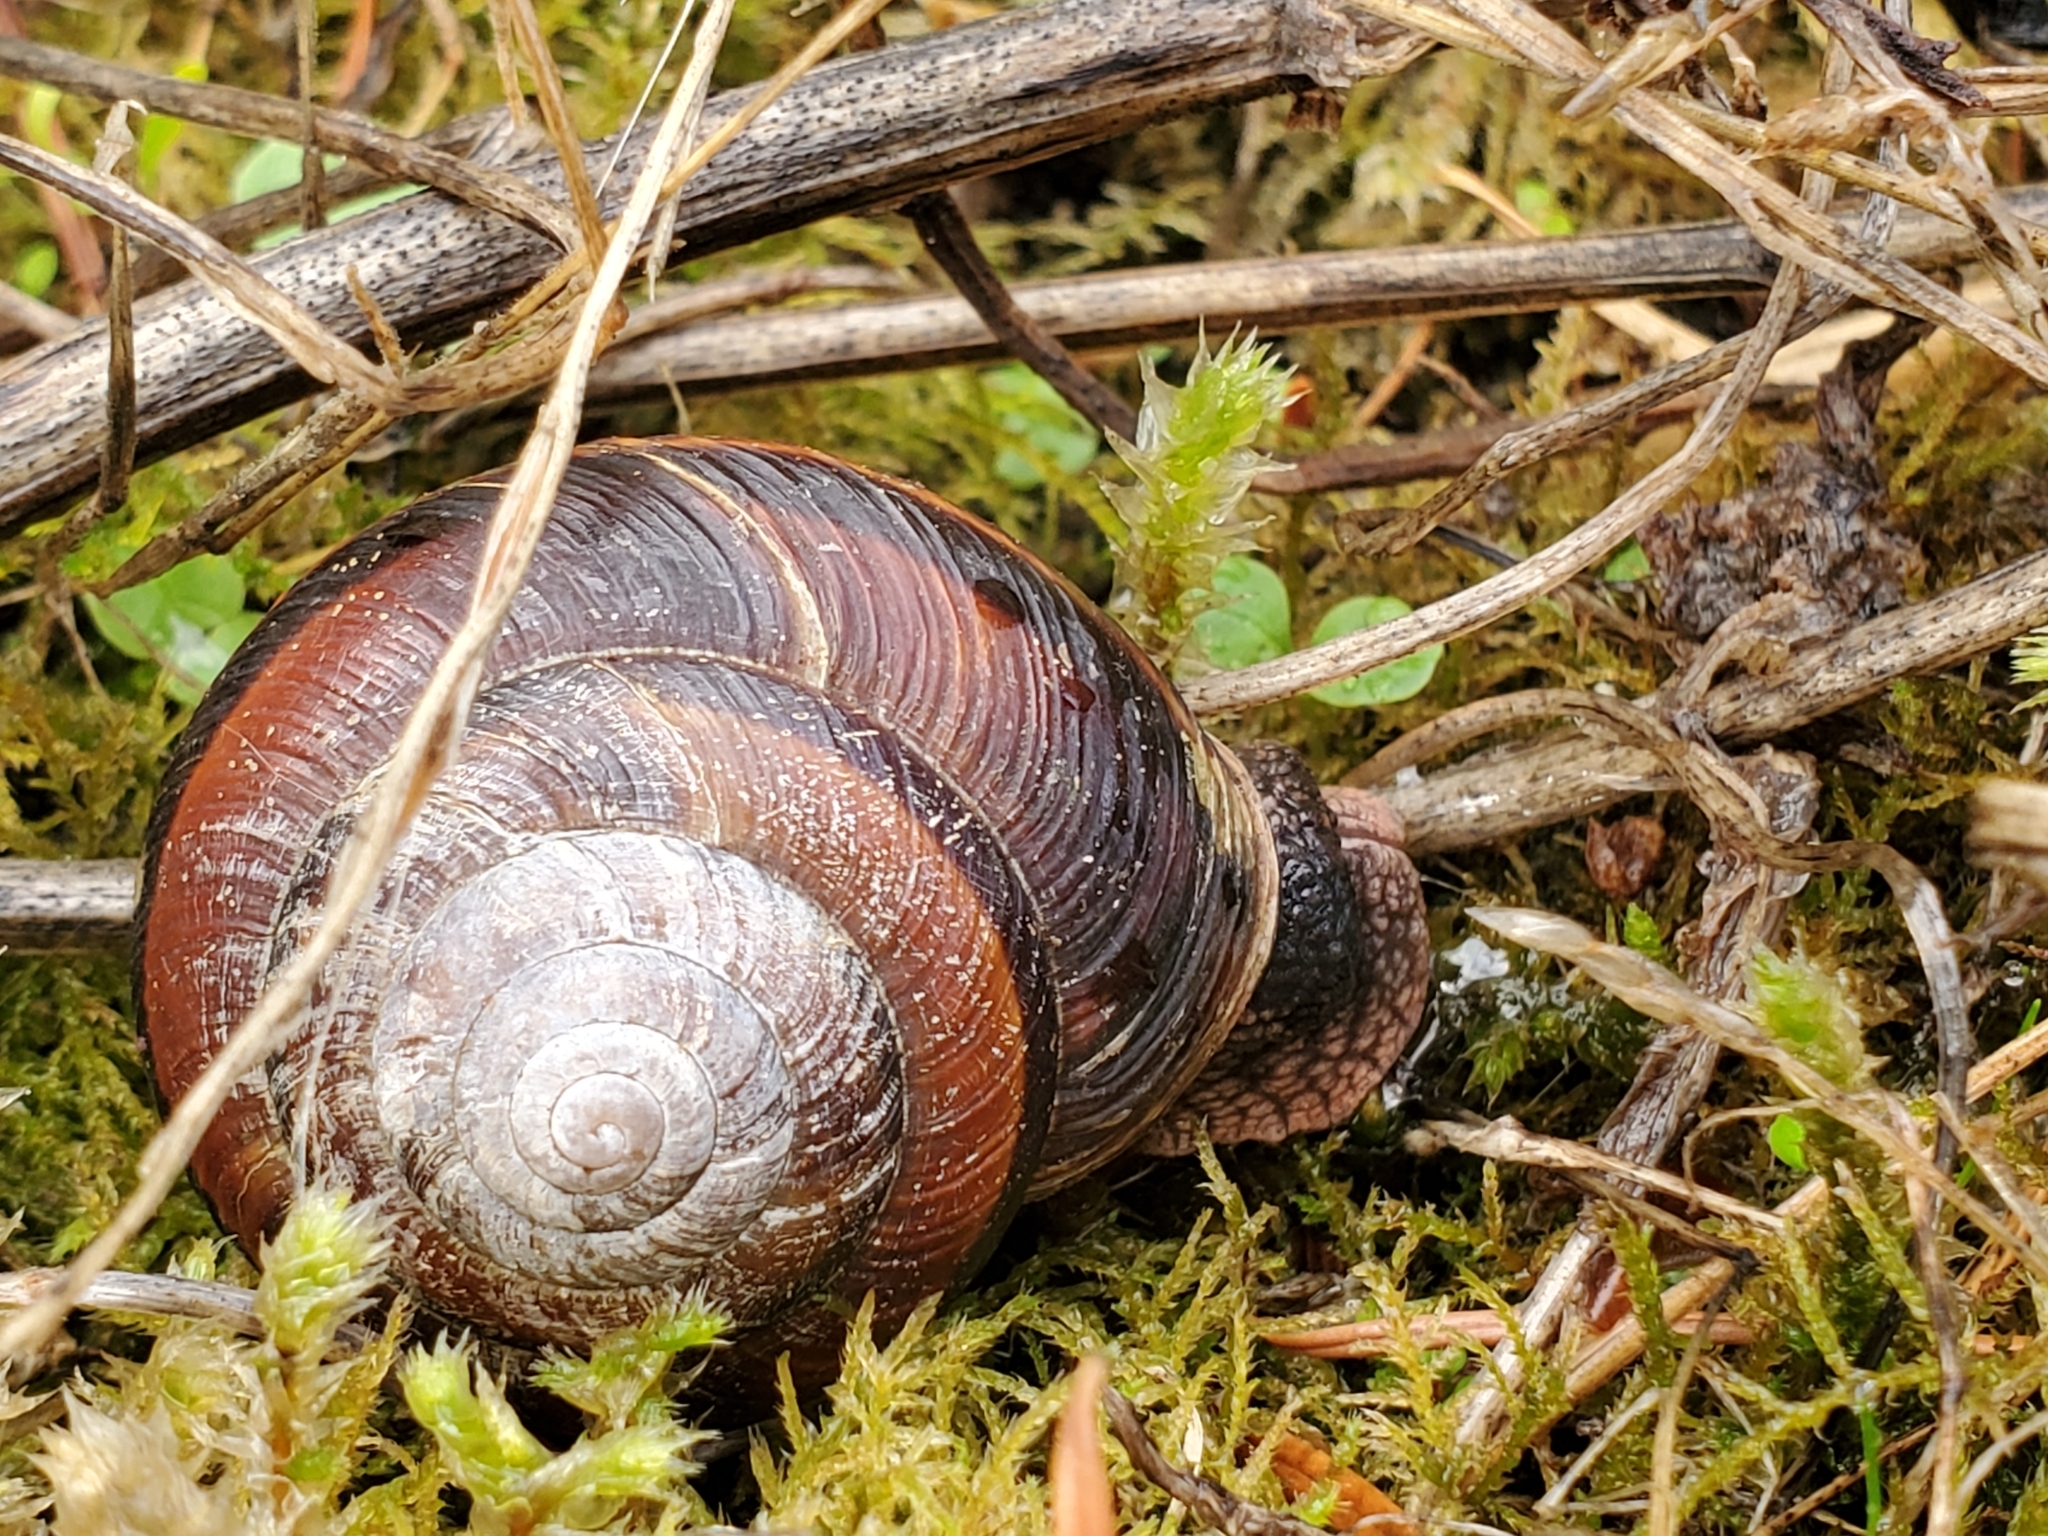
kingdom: Animalia
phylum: Mollusca
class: Gastropoda
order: Stylommatophora
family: Xanthonychidae
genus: Monadenia
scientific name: Monadenia fidelis
